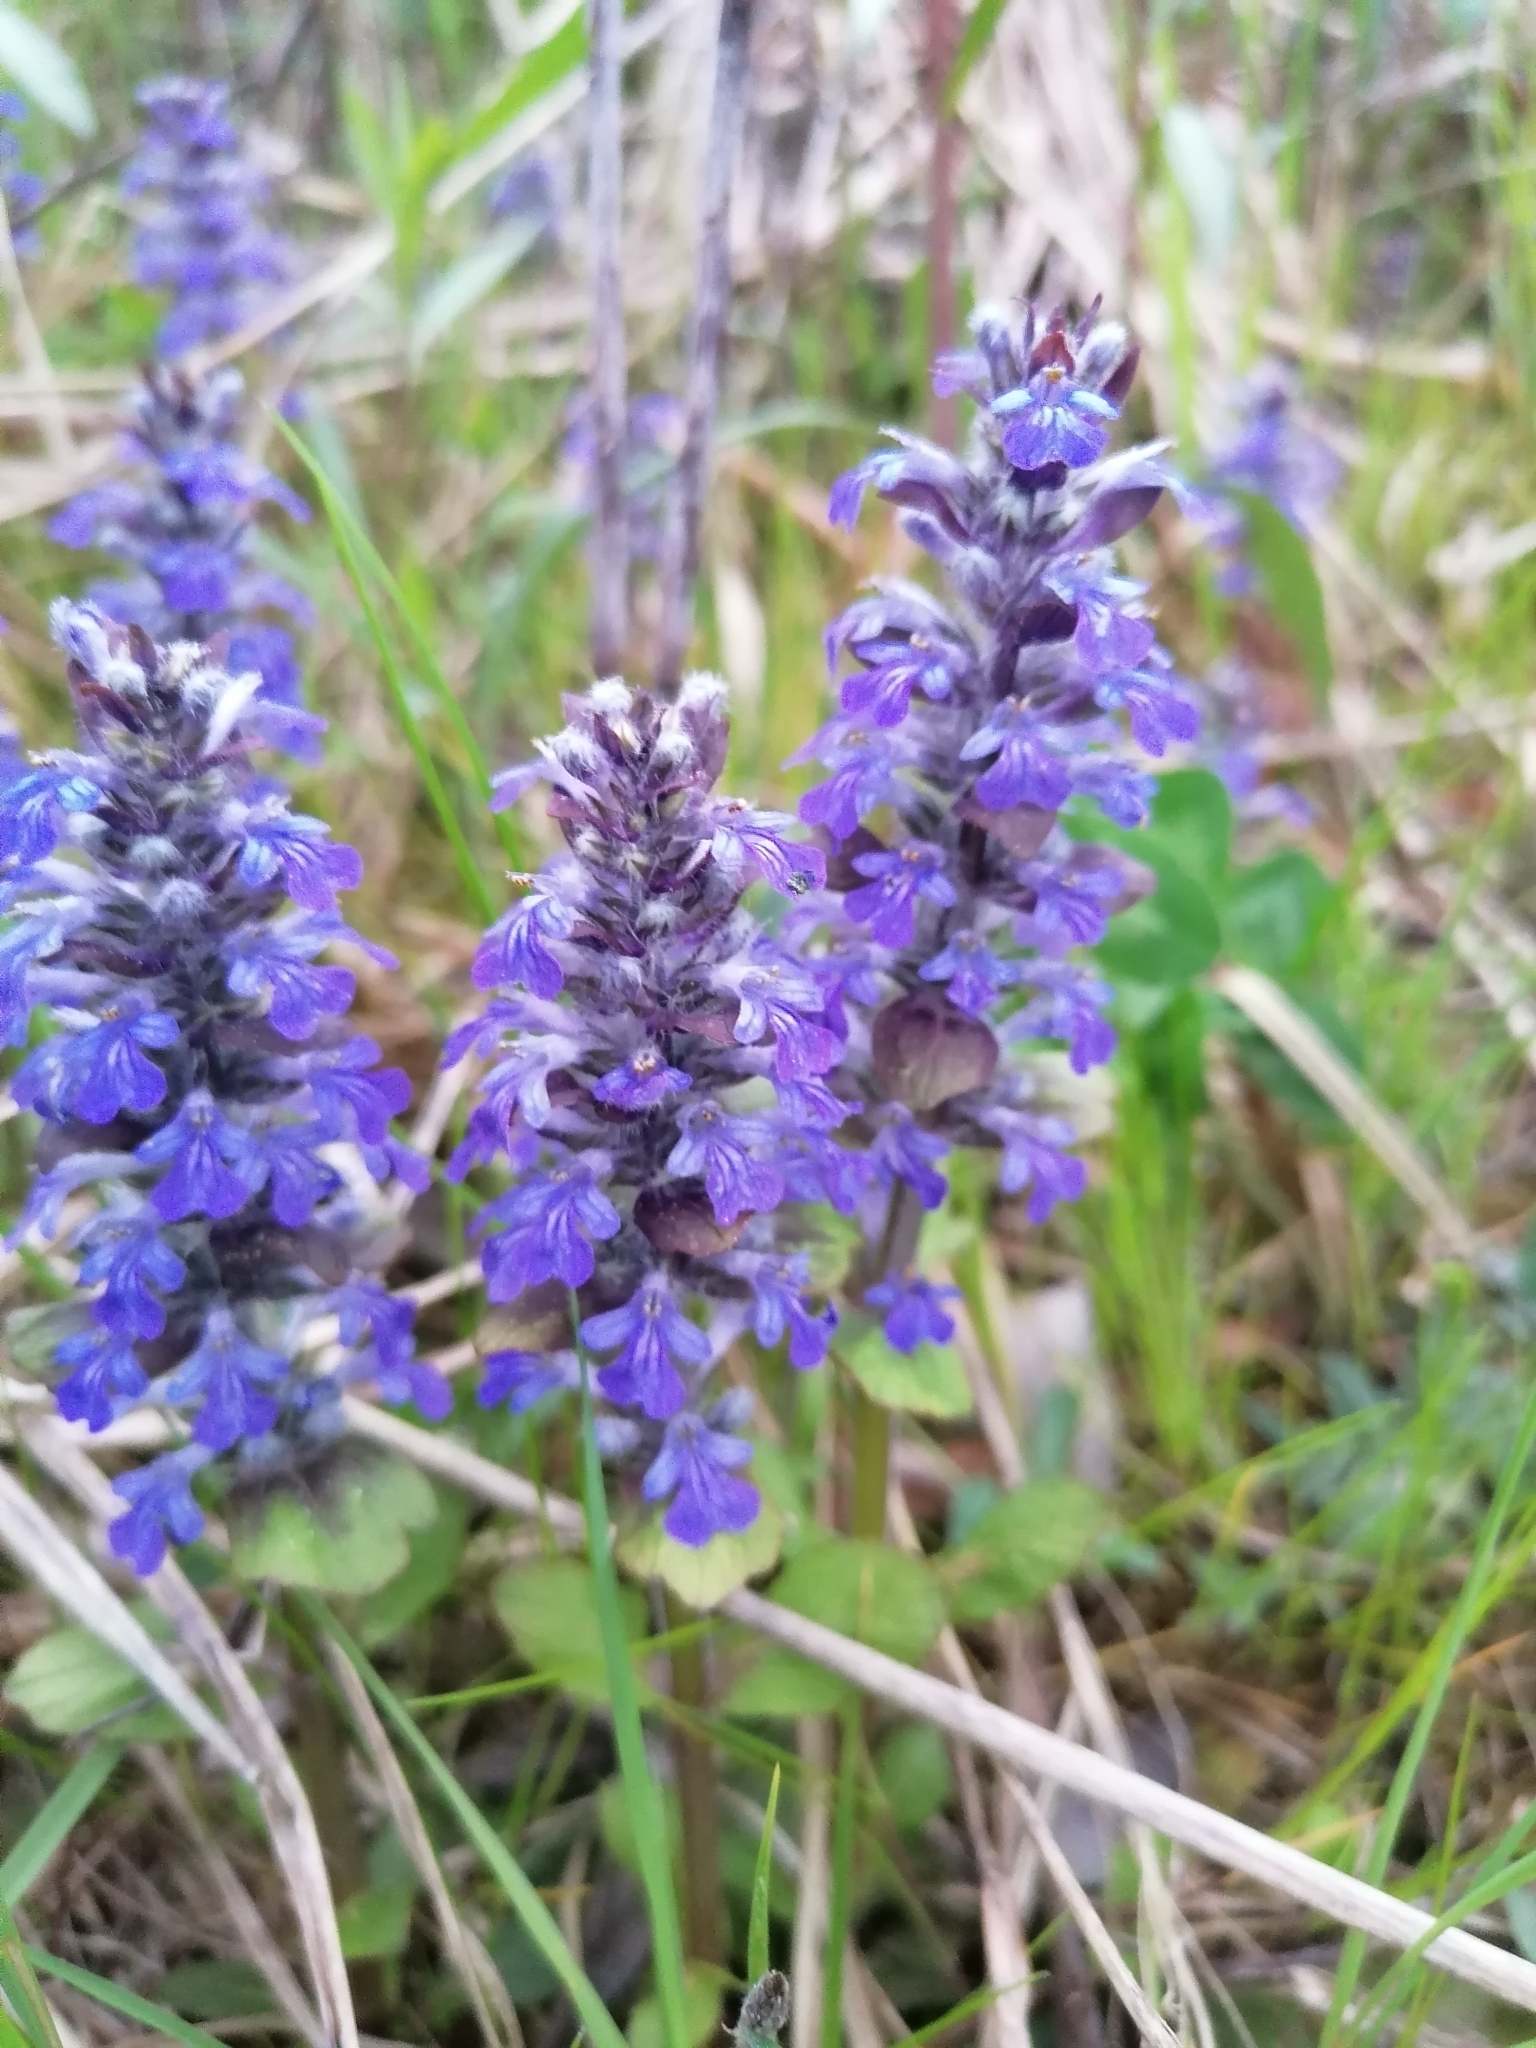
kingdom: Plantae
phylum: Tracheophyta
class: Magnoliopsida
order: Lamiales
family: Lamiaceae
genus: Ajuga
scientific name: Ajuga reptans
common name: Bugle
